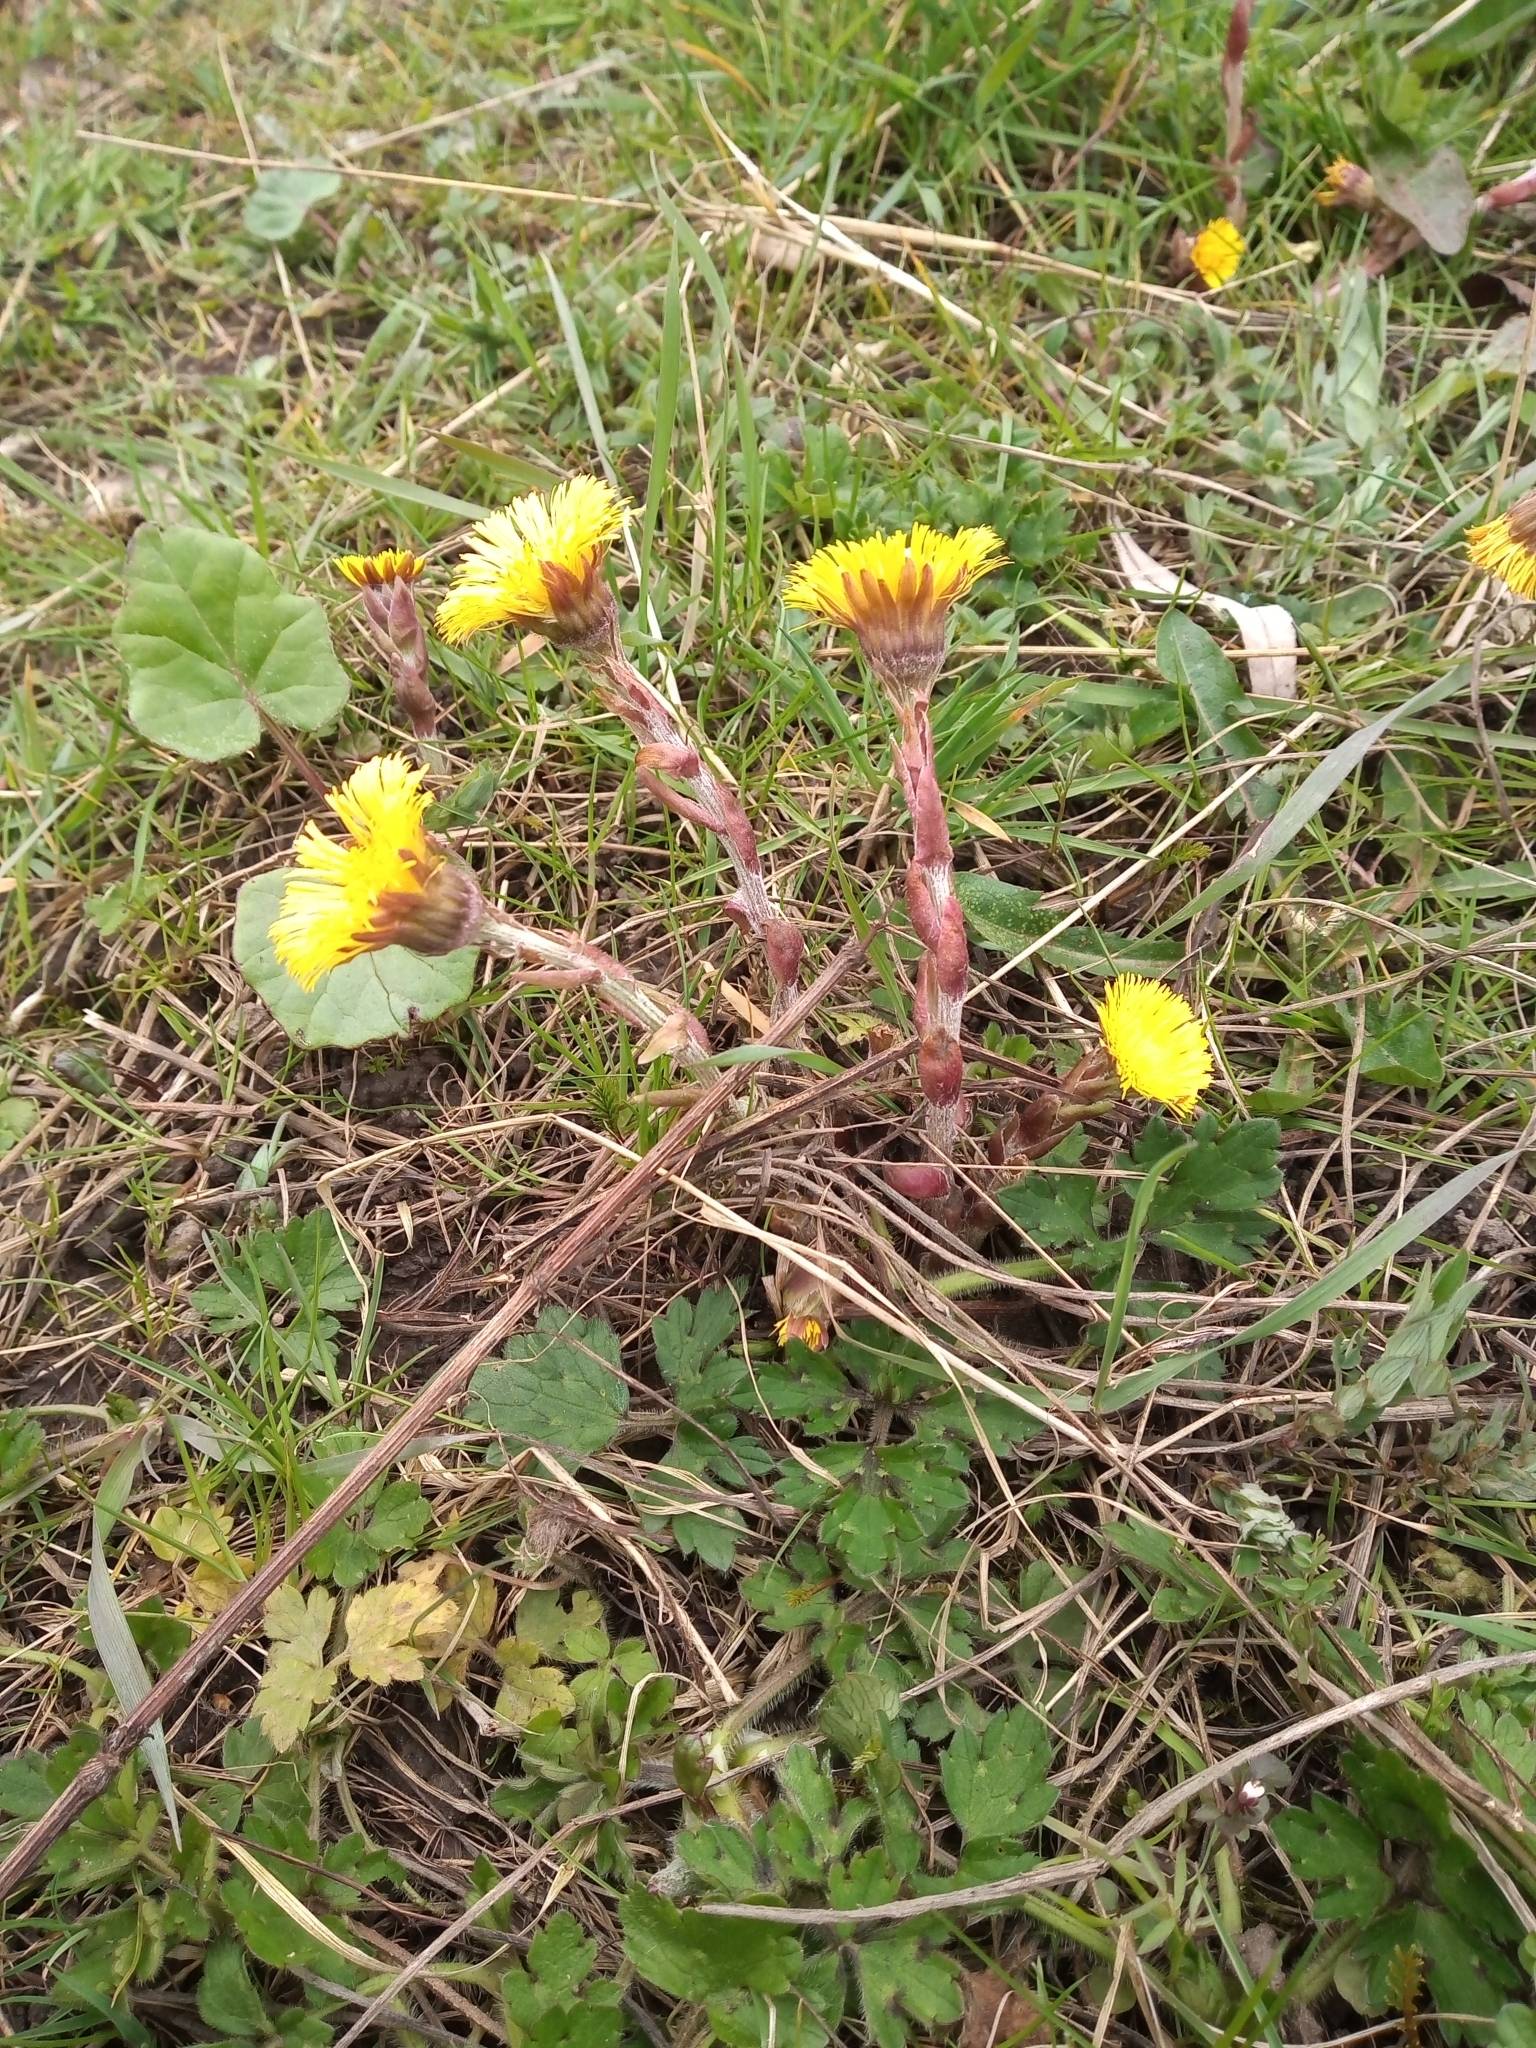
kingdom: Plantae
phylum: Tracheophyta
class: Magnoliopsida
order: Asterales
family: Asteraceae
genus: Tussilago
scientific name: Tussilago farfara
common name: Coltsfoot
